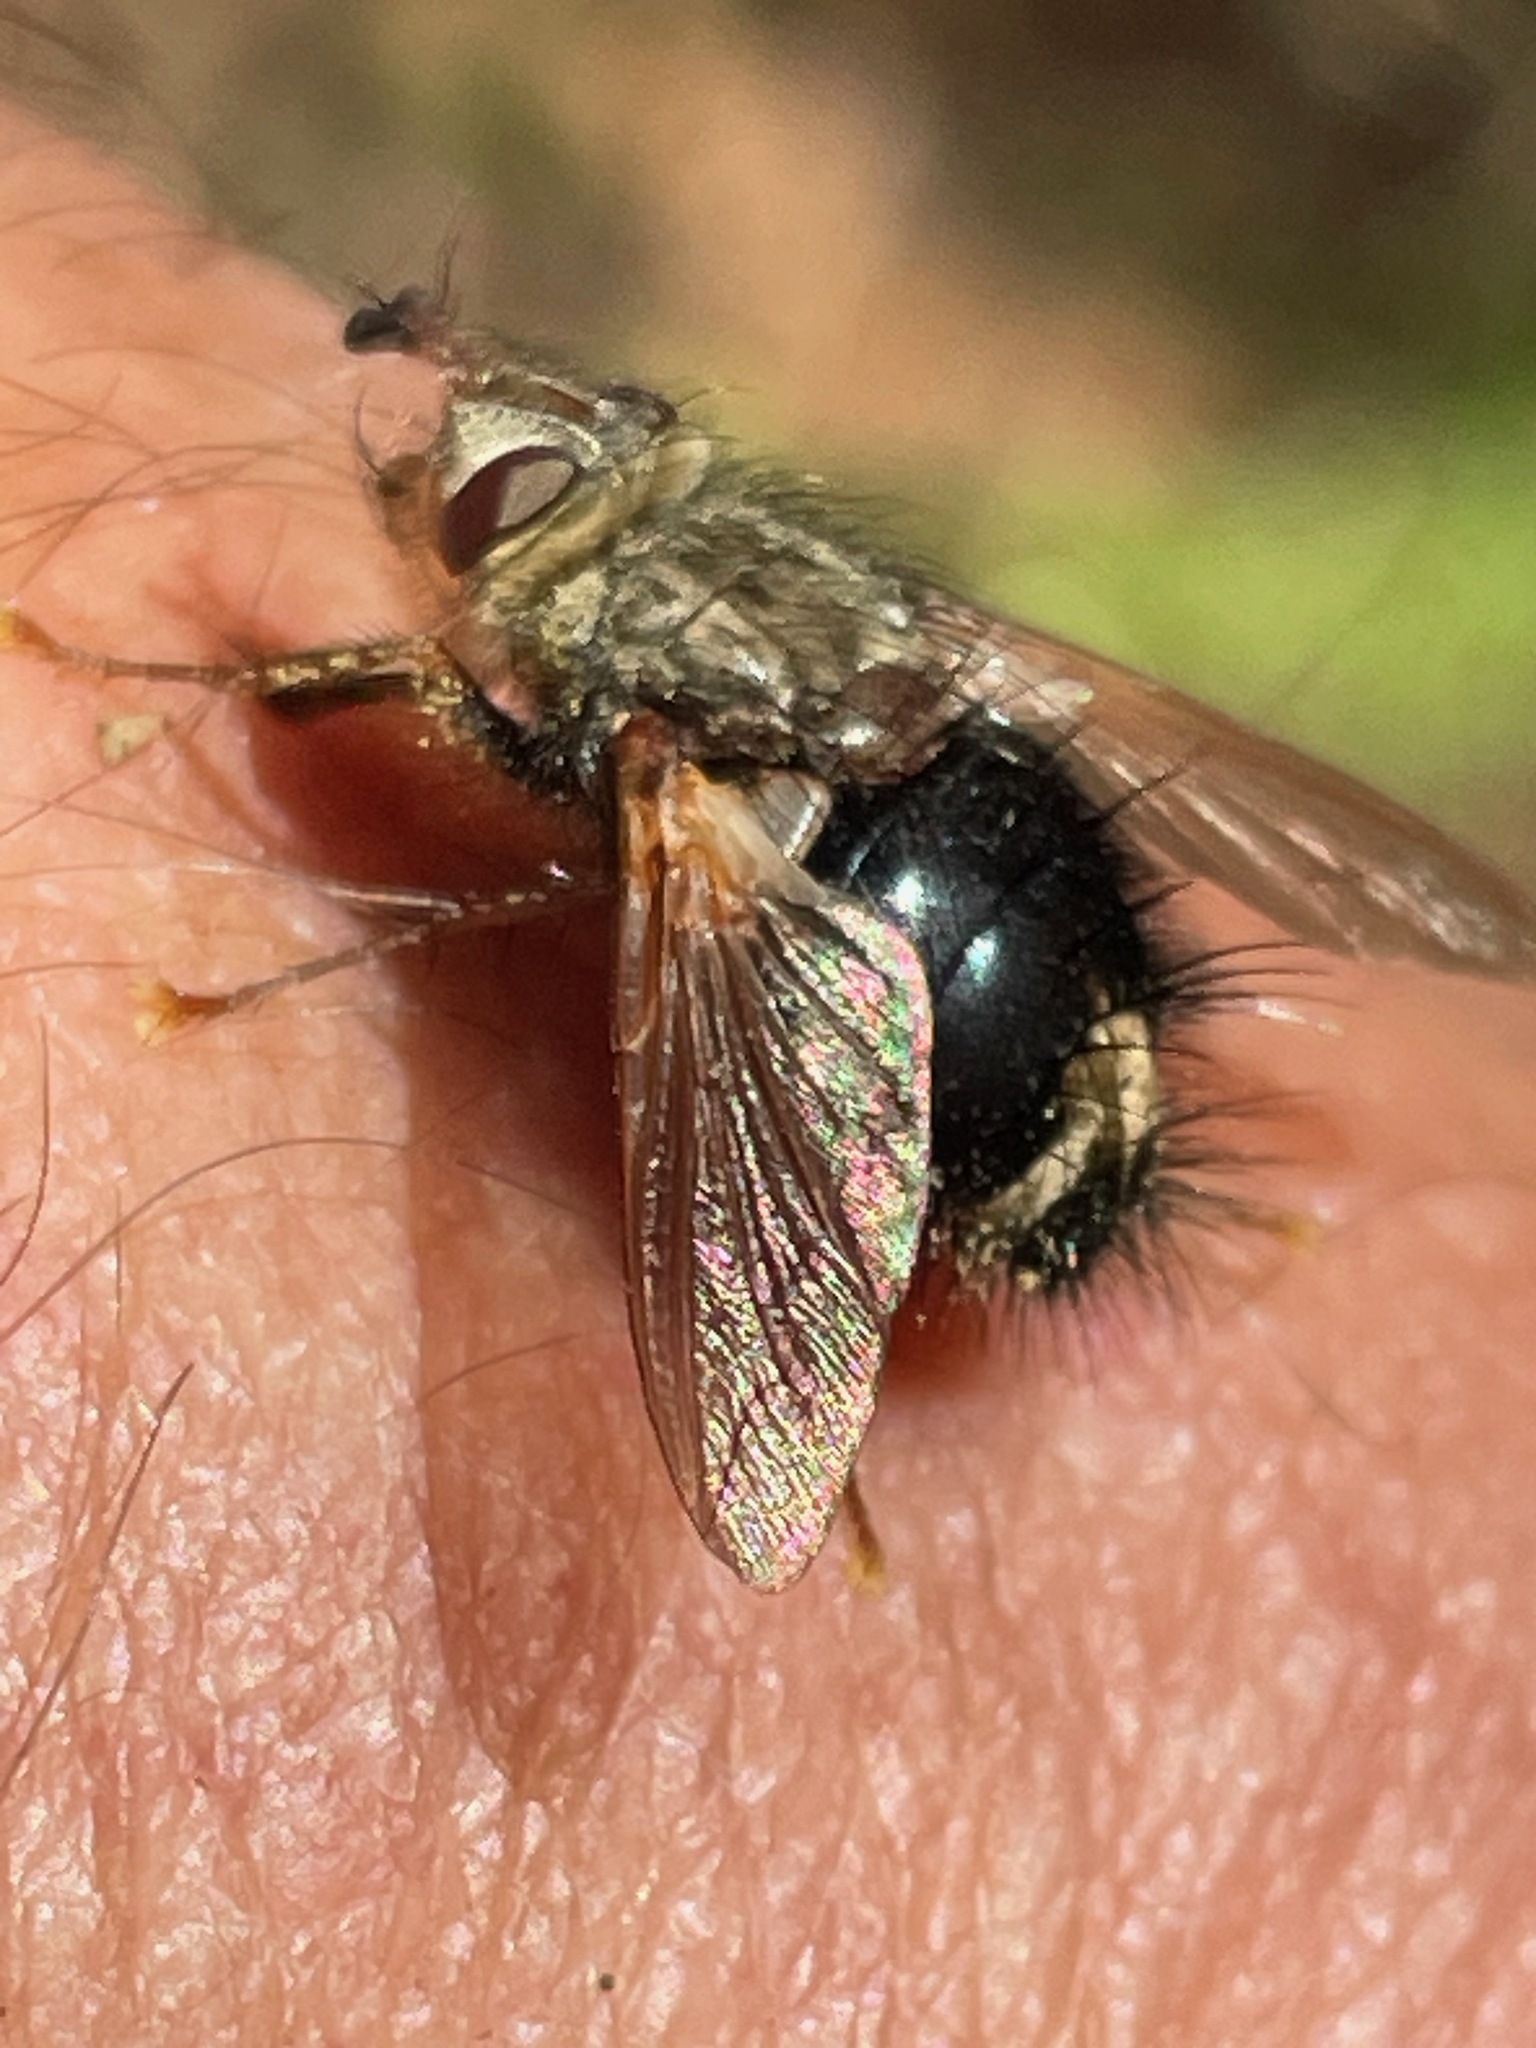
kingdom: Animalia
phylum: Arthropoda
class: Insecta
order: Diptera
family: Tachinidae
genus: Epalpus
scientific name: Epalpus signifer
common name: Early tachinid fly
